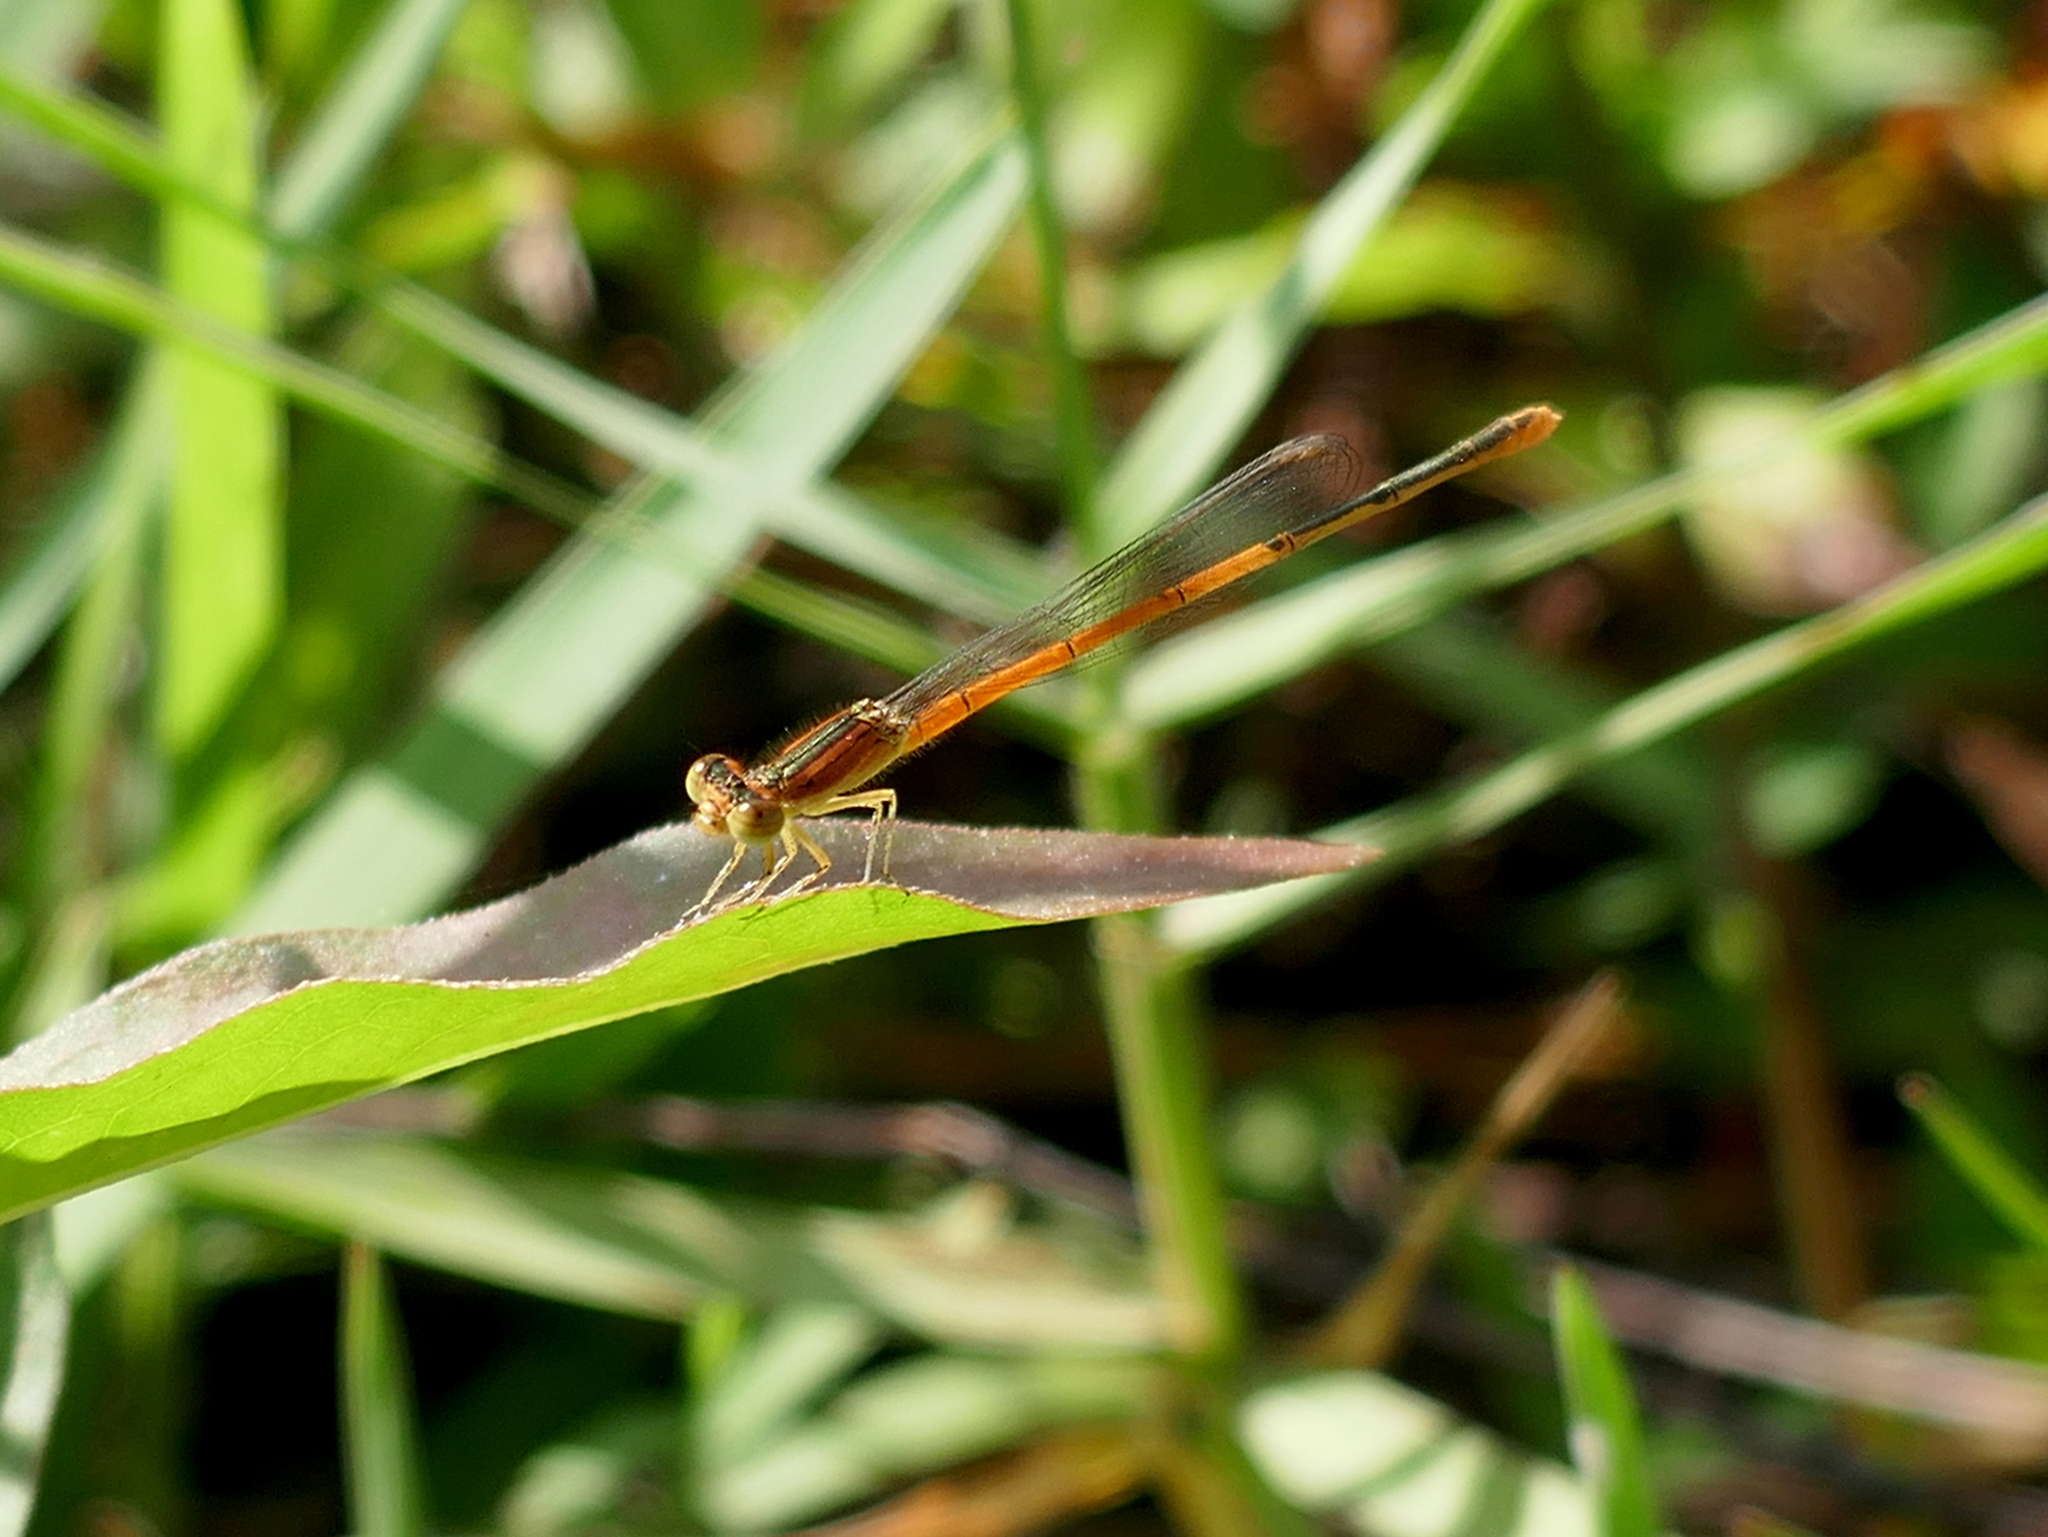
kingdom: Animalia
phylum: Arthropoda
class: Insecta
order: Odonata
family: Coenagrionidae
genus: Ischnura
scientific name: Ischnura hastata
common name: Citrine forktail
